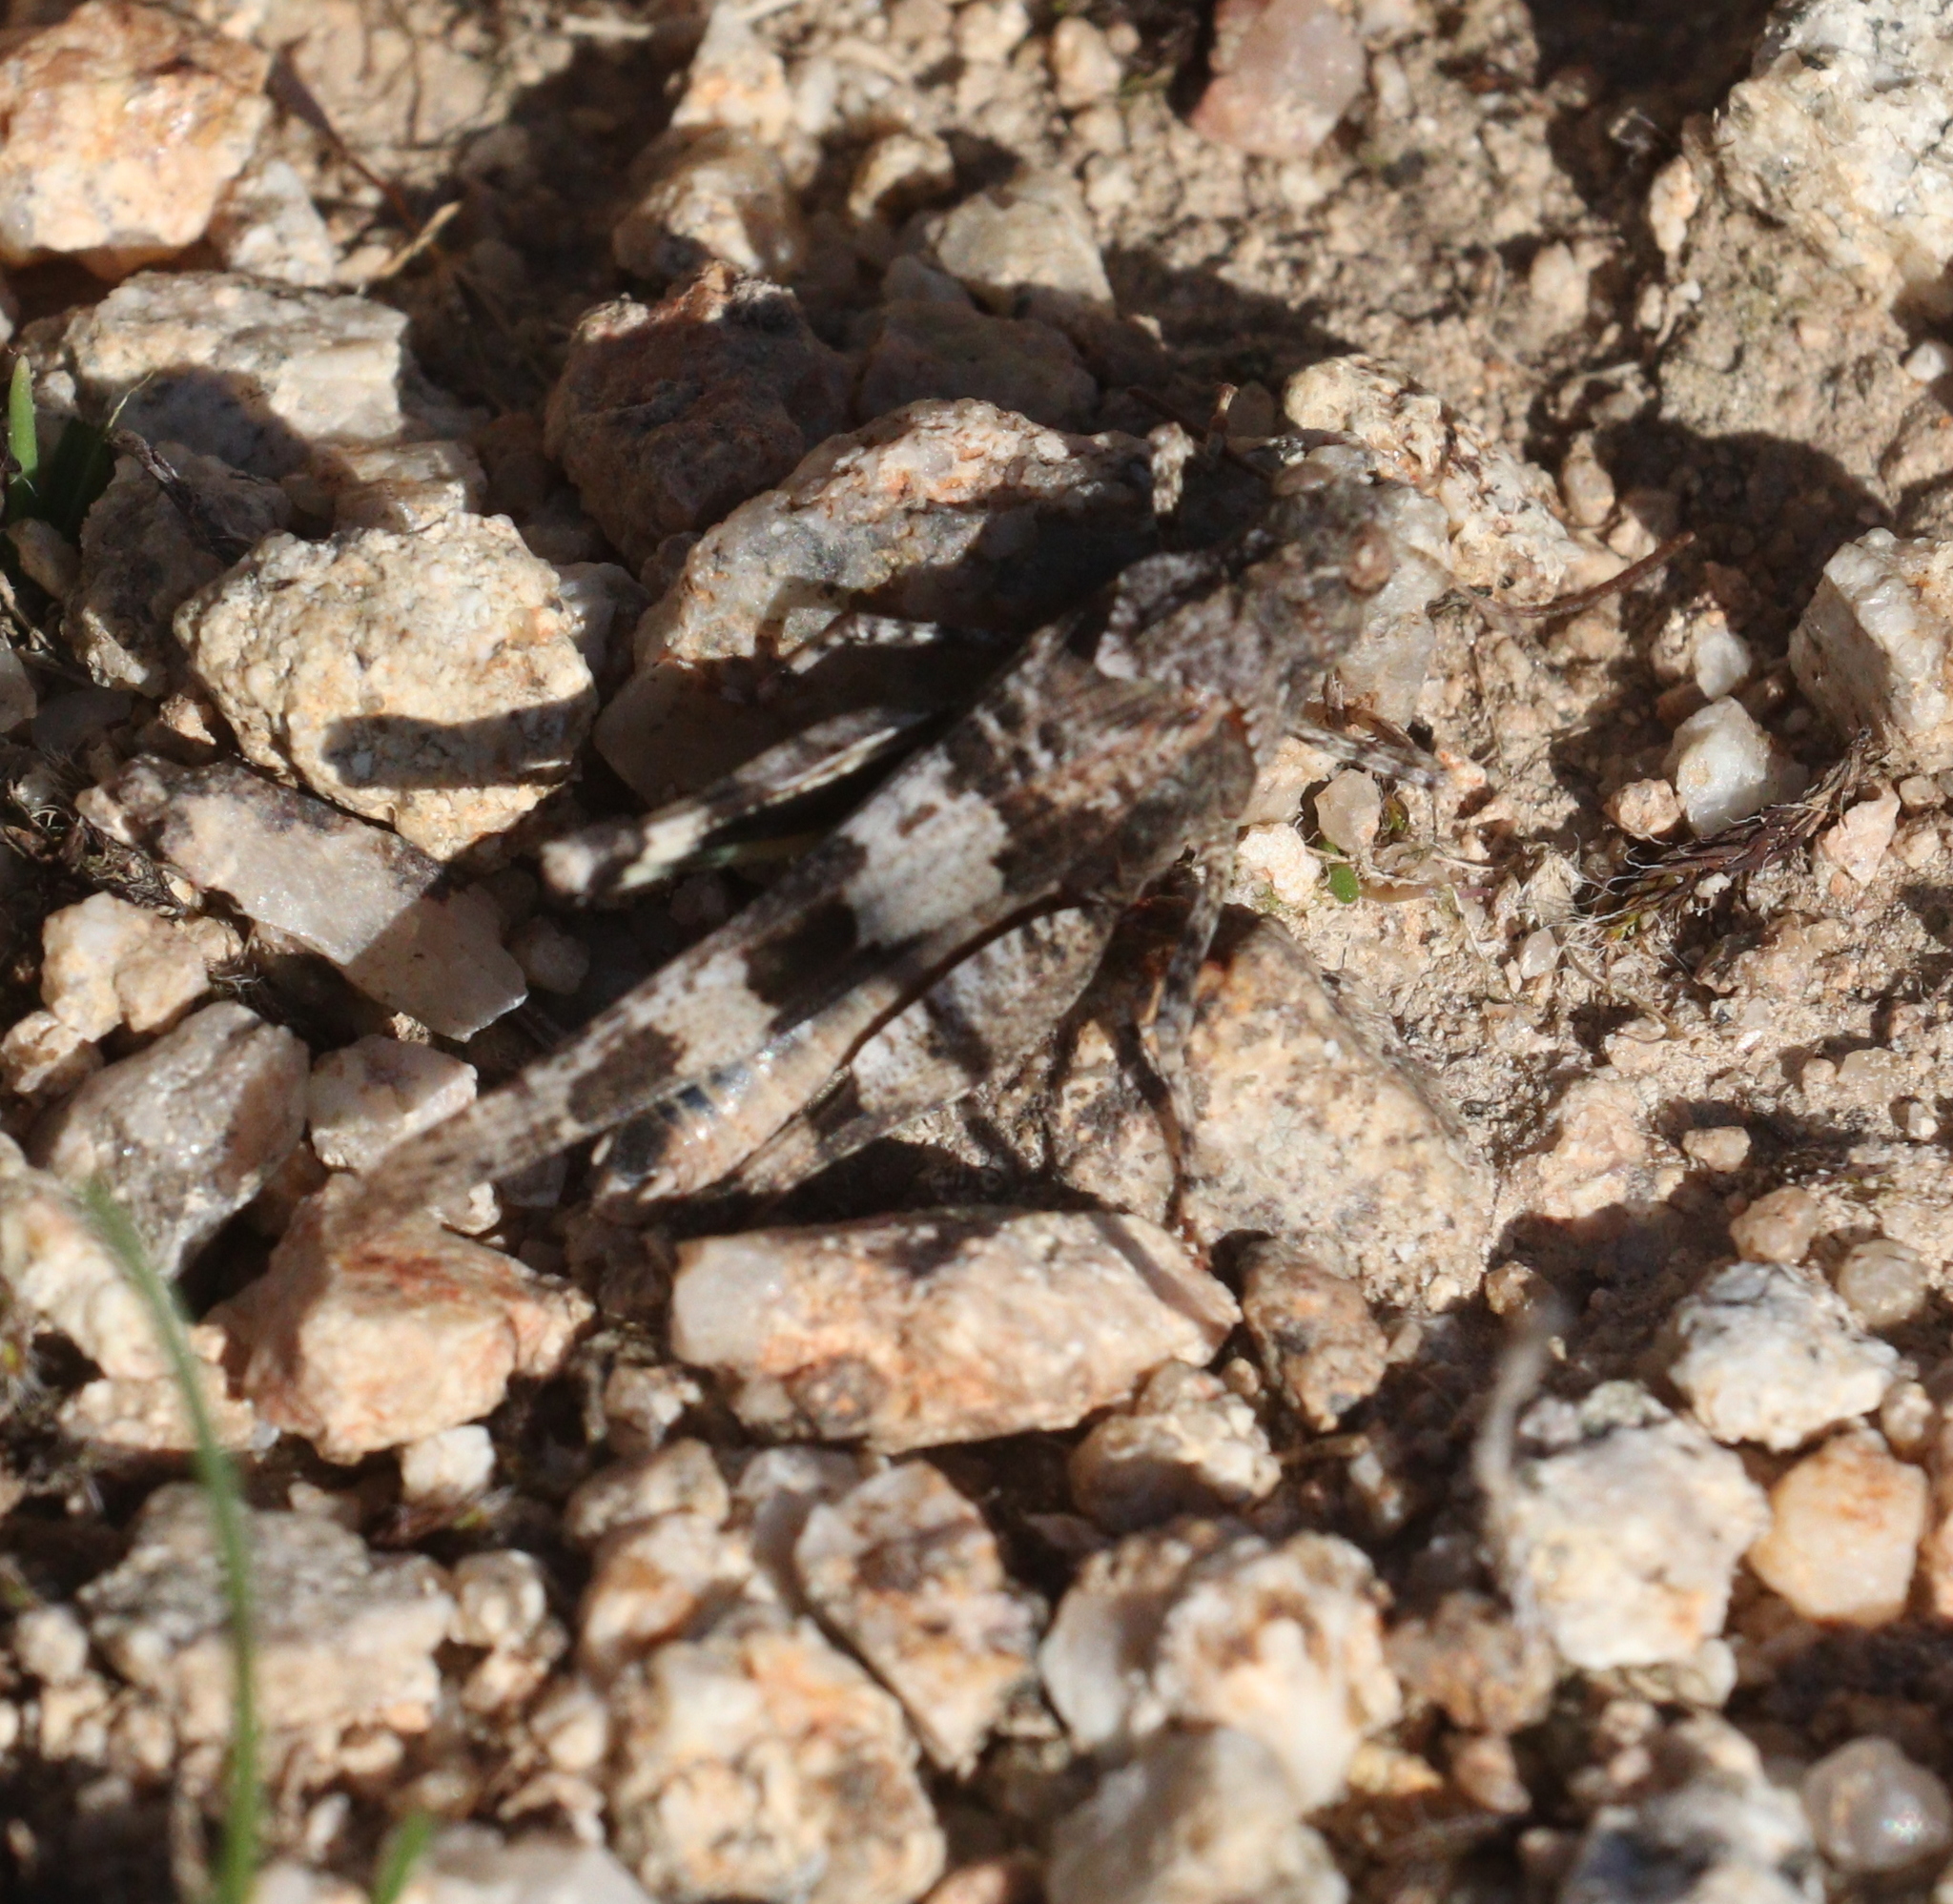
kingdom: Animalia
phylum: Arthropoda
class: Insecta
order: Orthoptera
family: Acrididae
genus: Oedipoda
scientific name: Oedipoda caerulescens
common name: Blue-winged grasshopper
